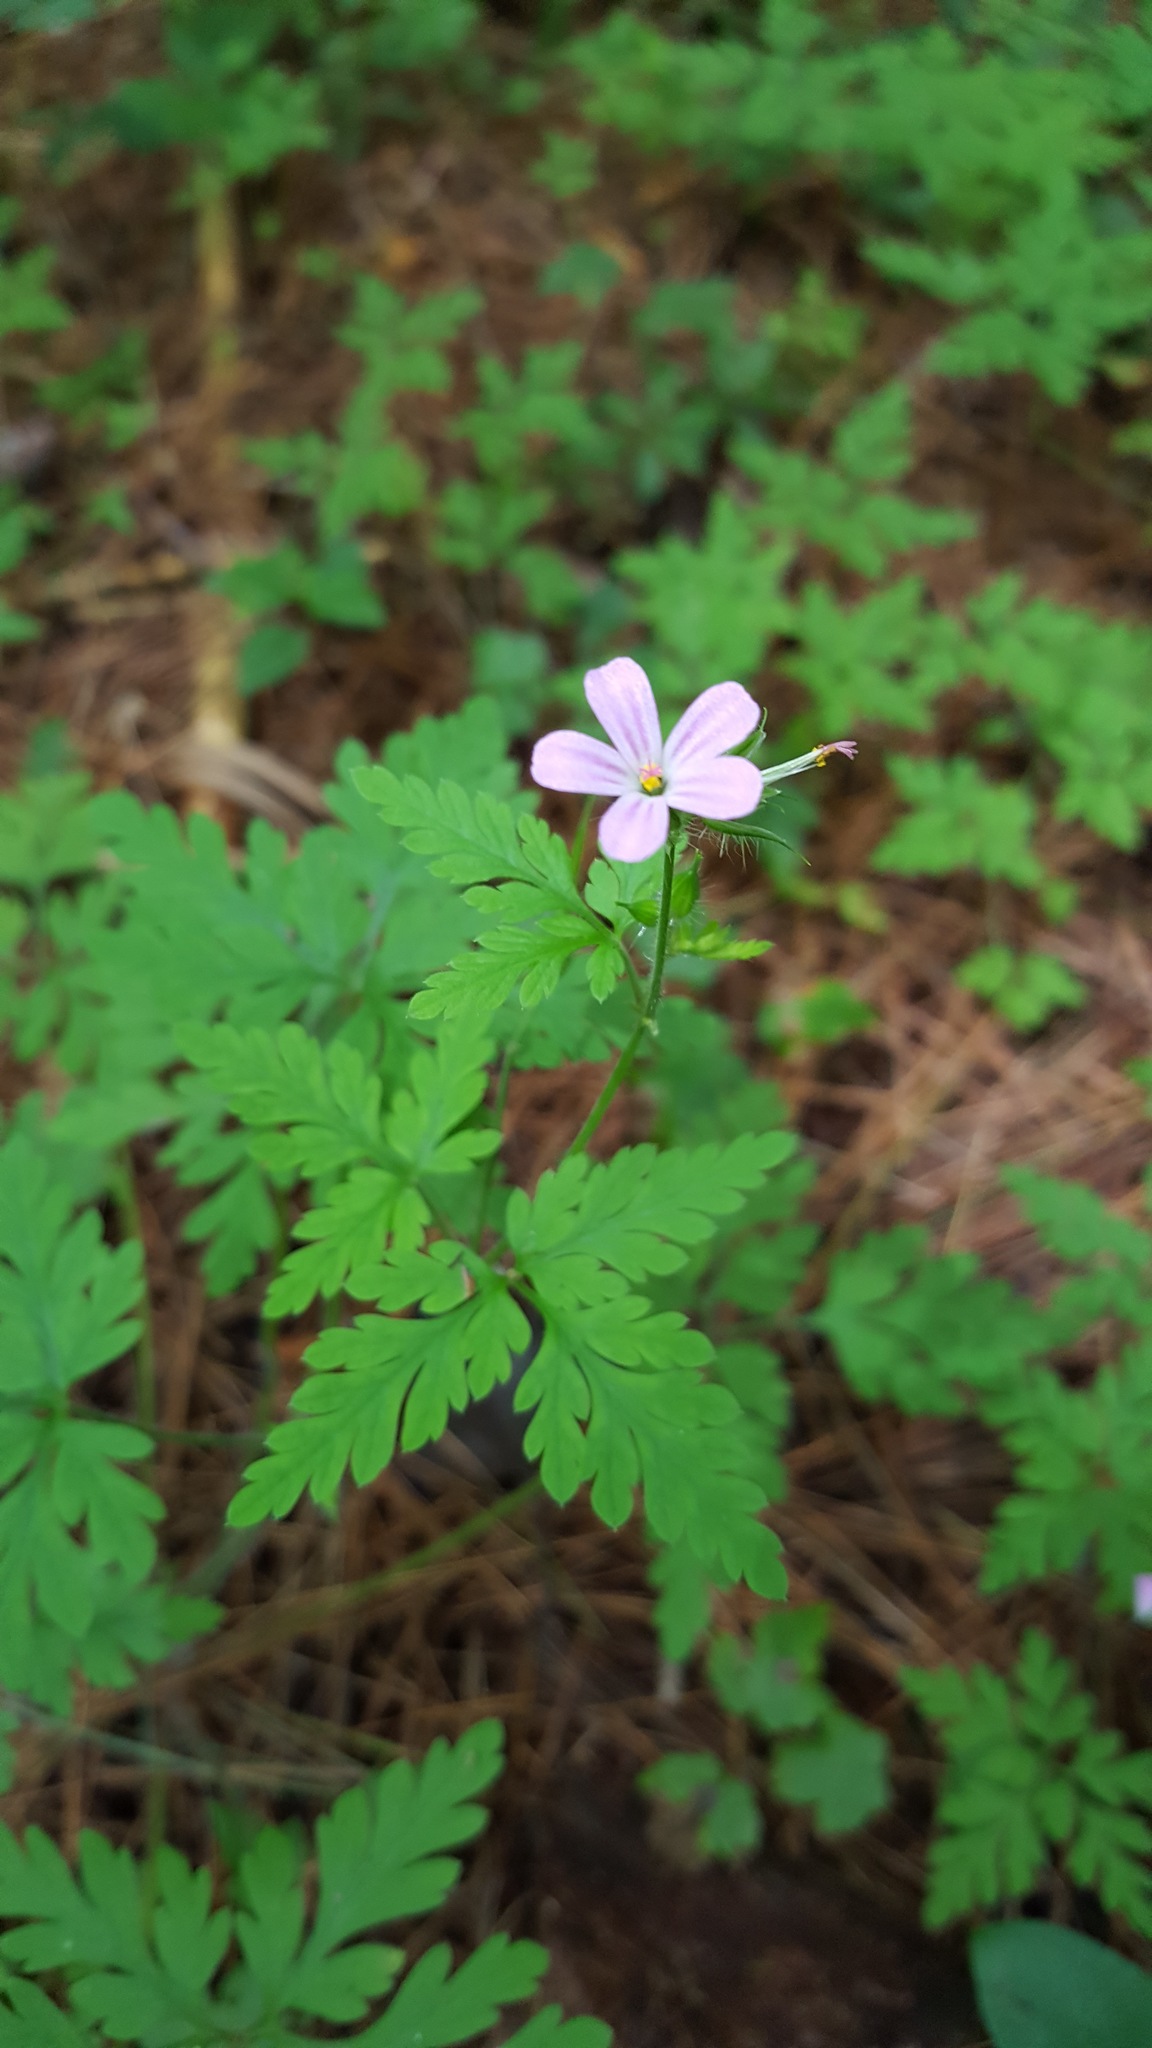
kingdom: Plantae
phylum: Tracheophyta
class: Magnoliopsida
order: Geraniales
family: Geraniaceae
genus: Geranium
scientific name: Geranium robertianum
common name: Herb-robert
